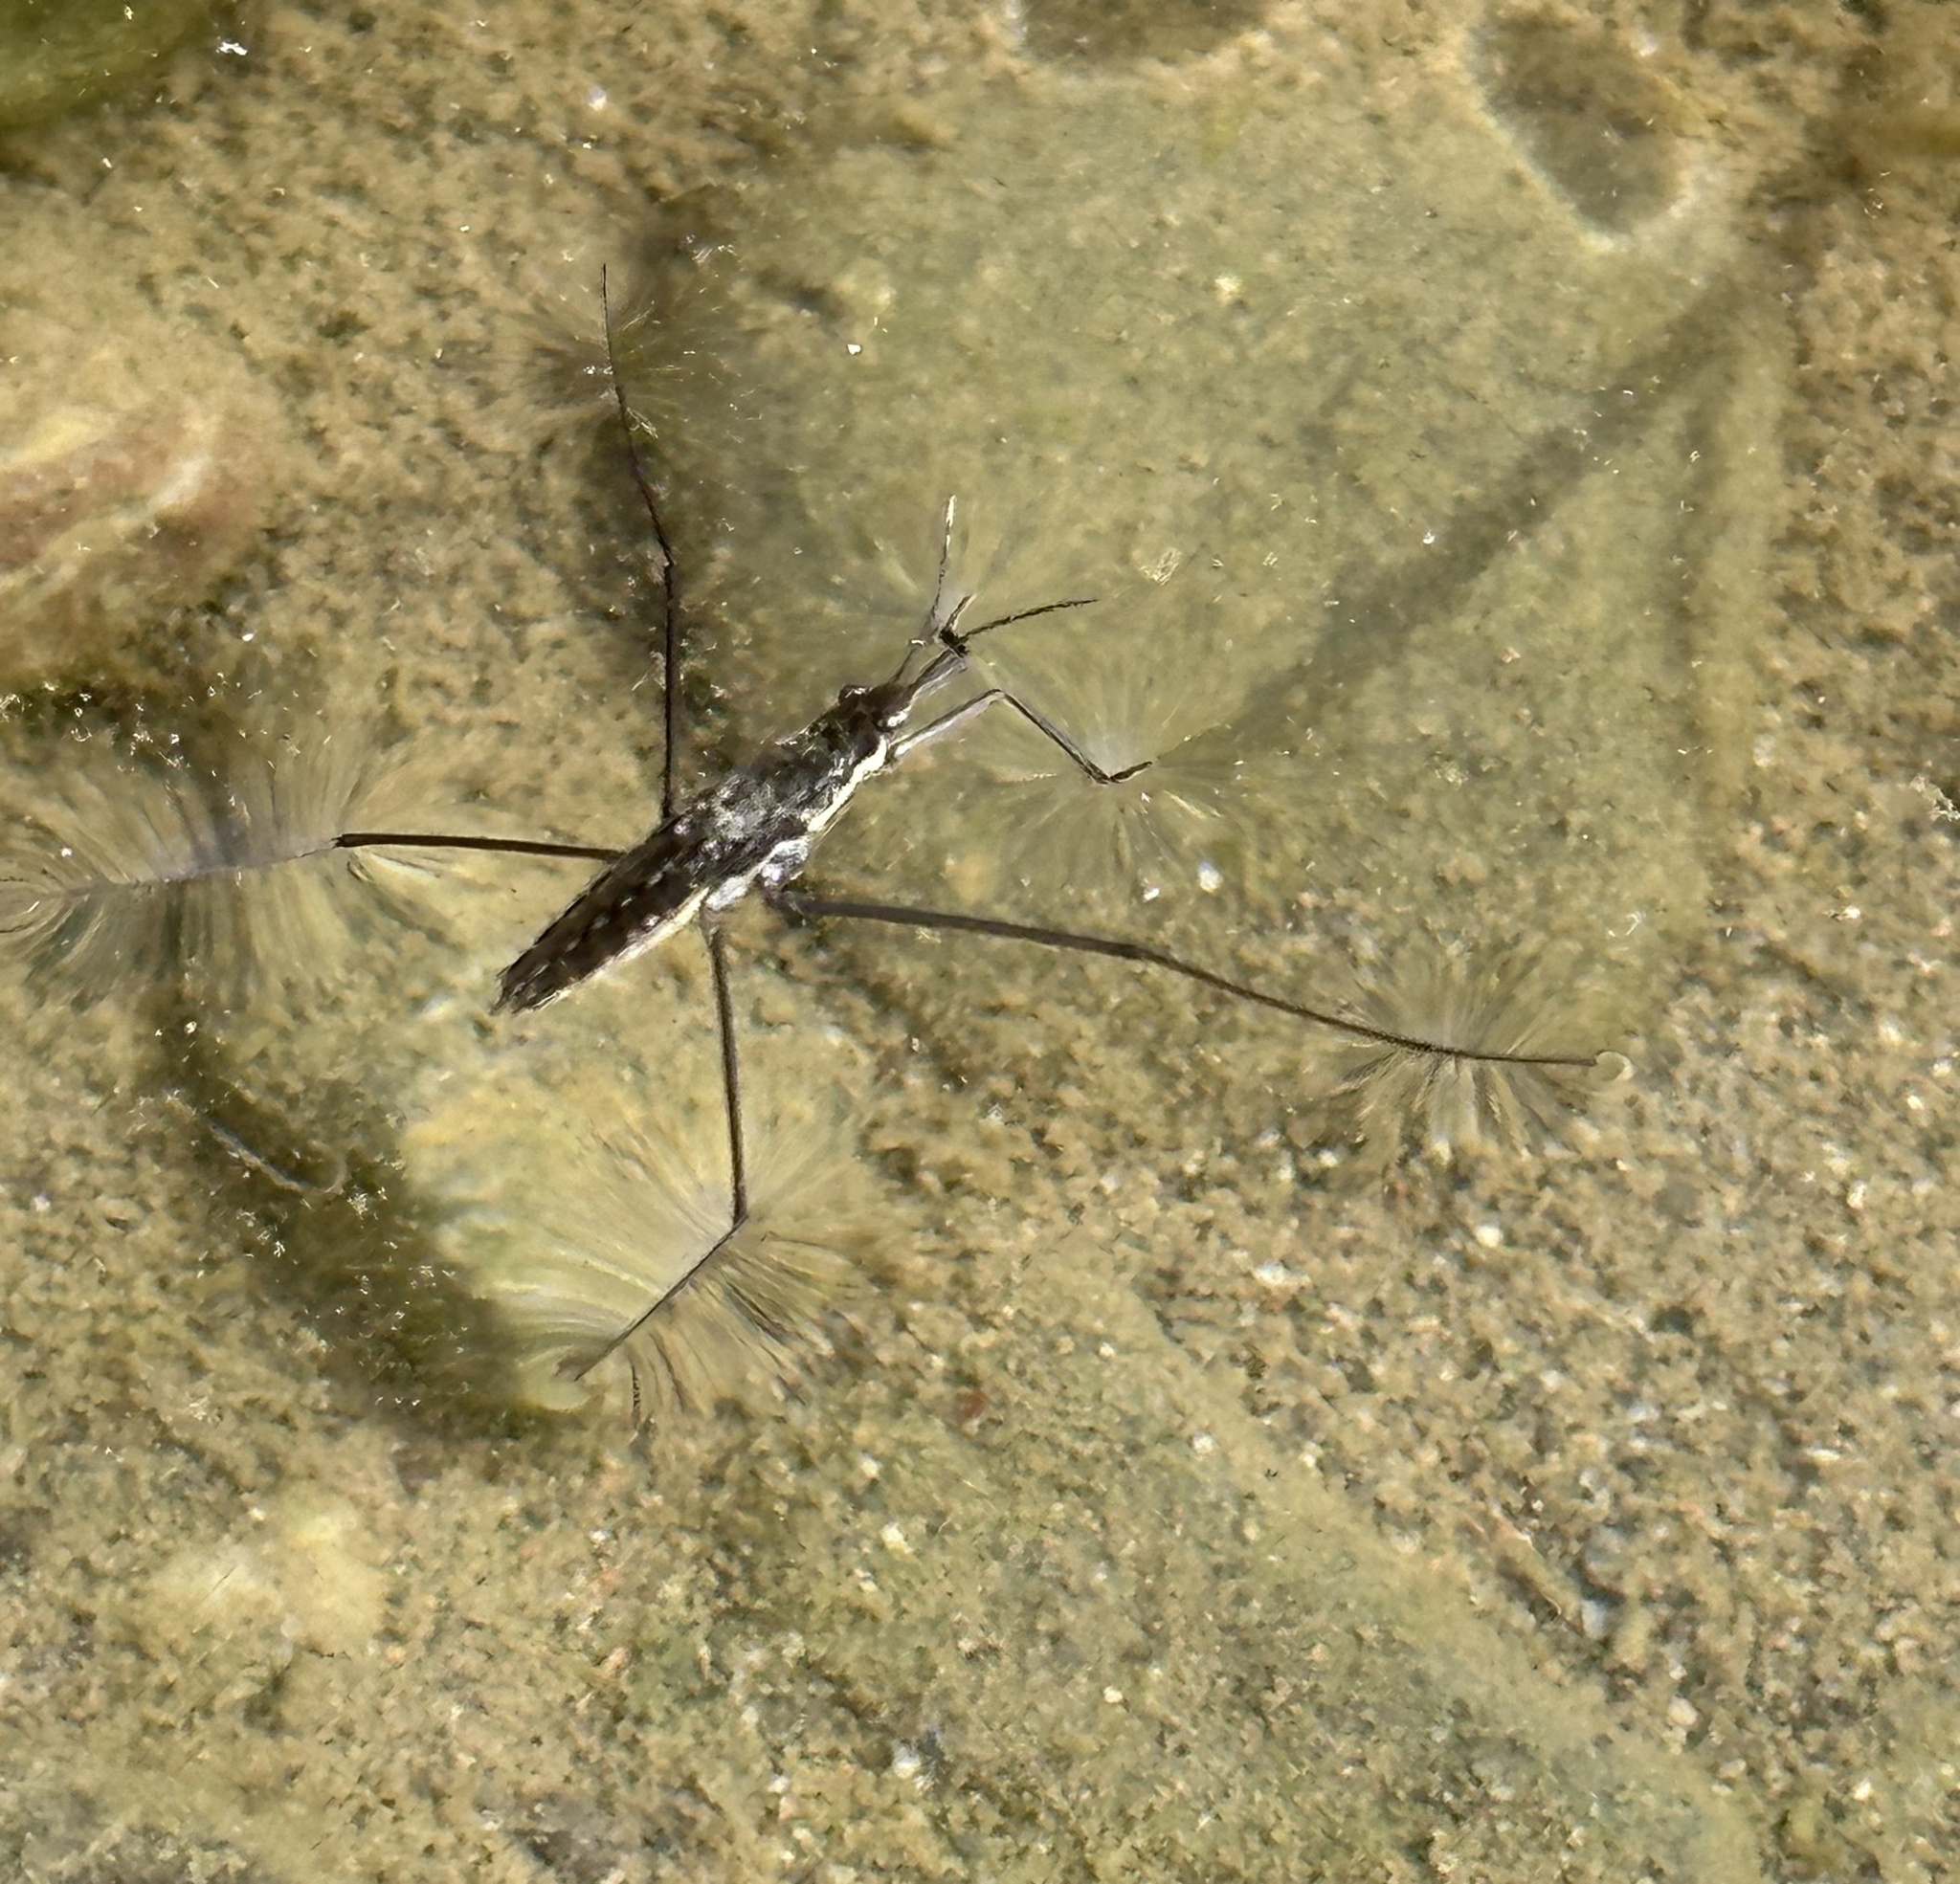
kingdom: Animalia
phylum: Arthropoda
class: Insecta
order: Hemiptera
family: Gerridae
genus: Aquarius
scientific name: Aquarius remigis
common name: Common water strider
